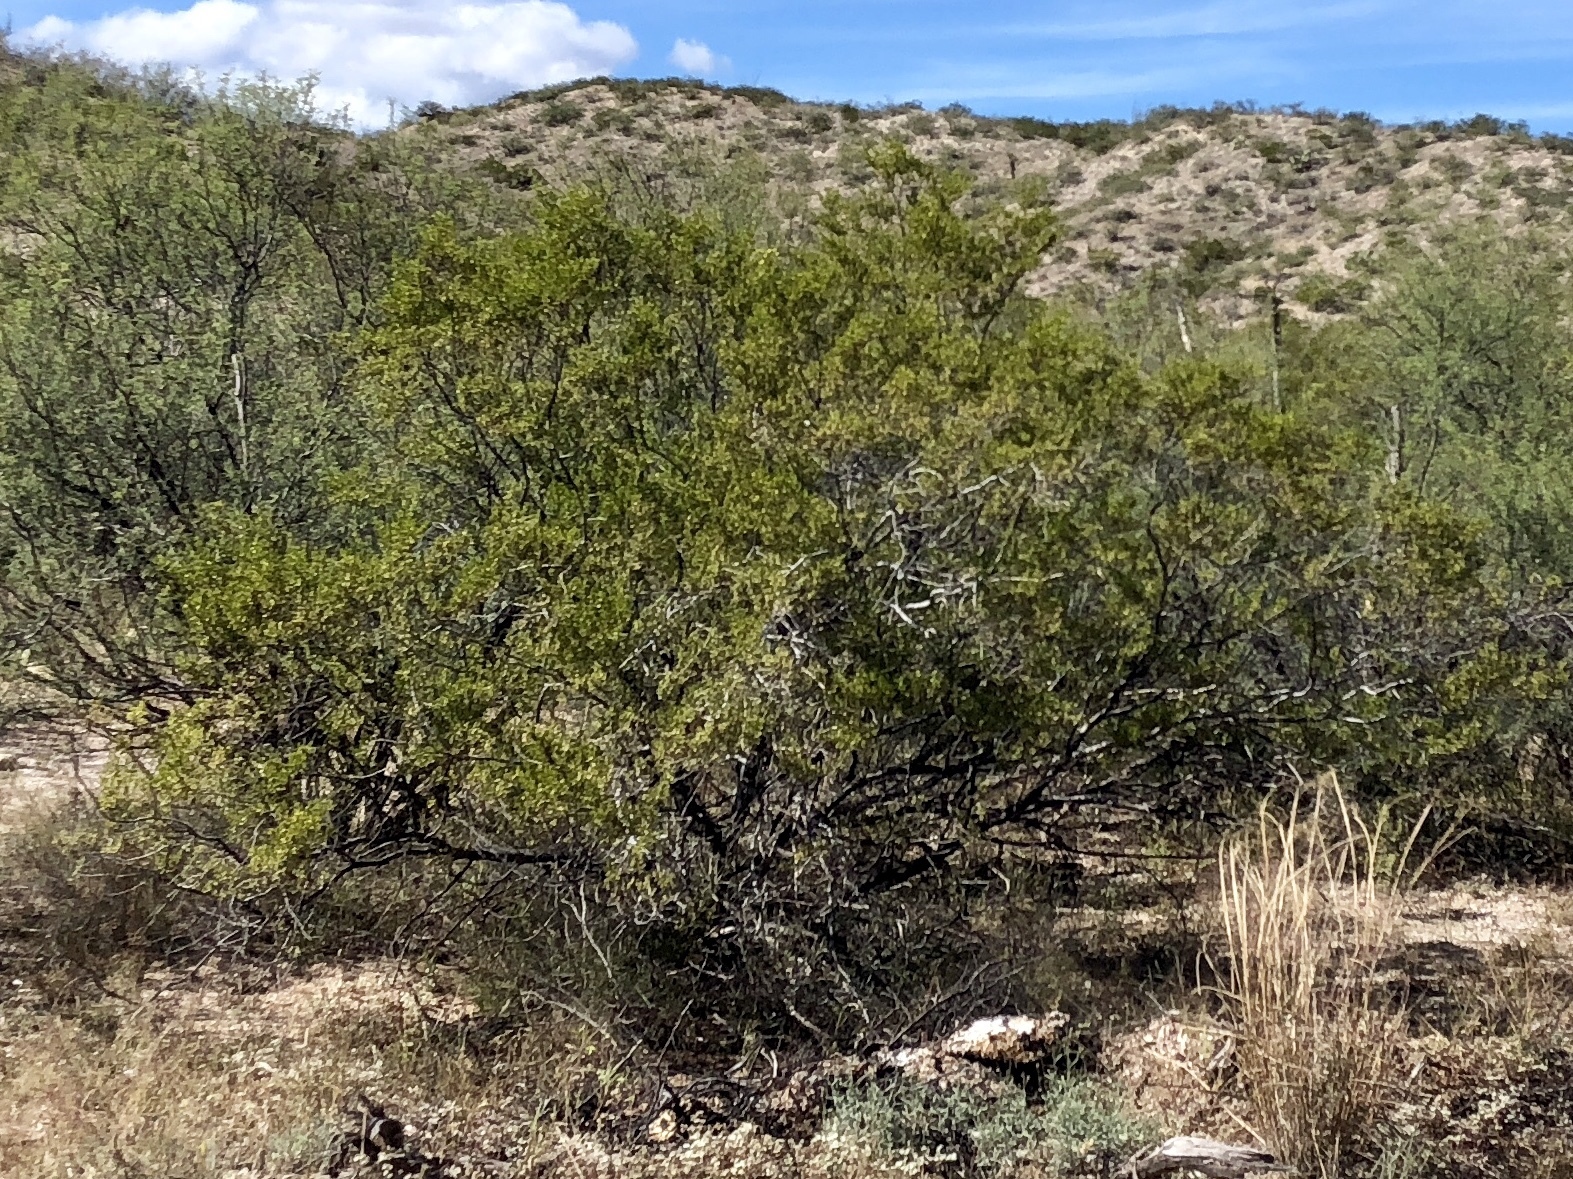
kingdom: Plantae
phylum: Tracheophyta
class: Magnoliopsida
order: Zygophyllales
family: Zygophyllaceae
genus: Larrea
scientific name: Larrea tridentata
